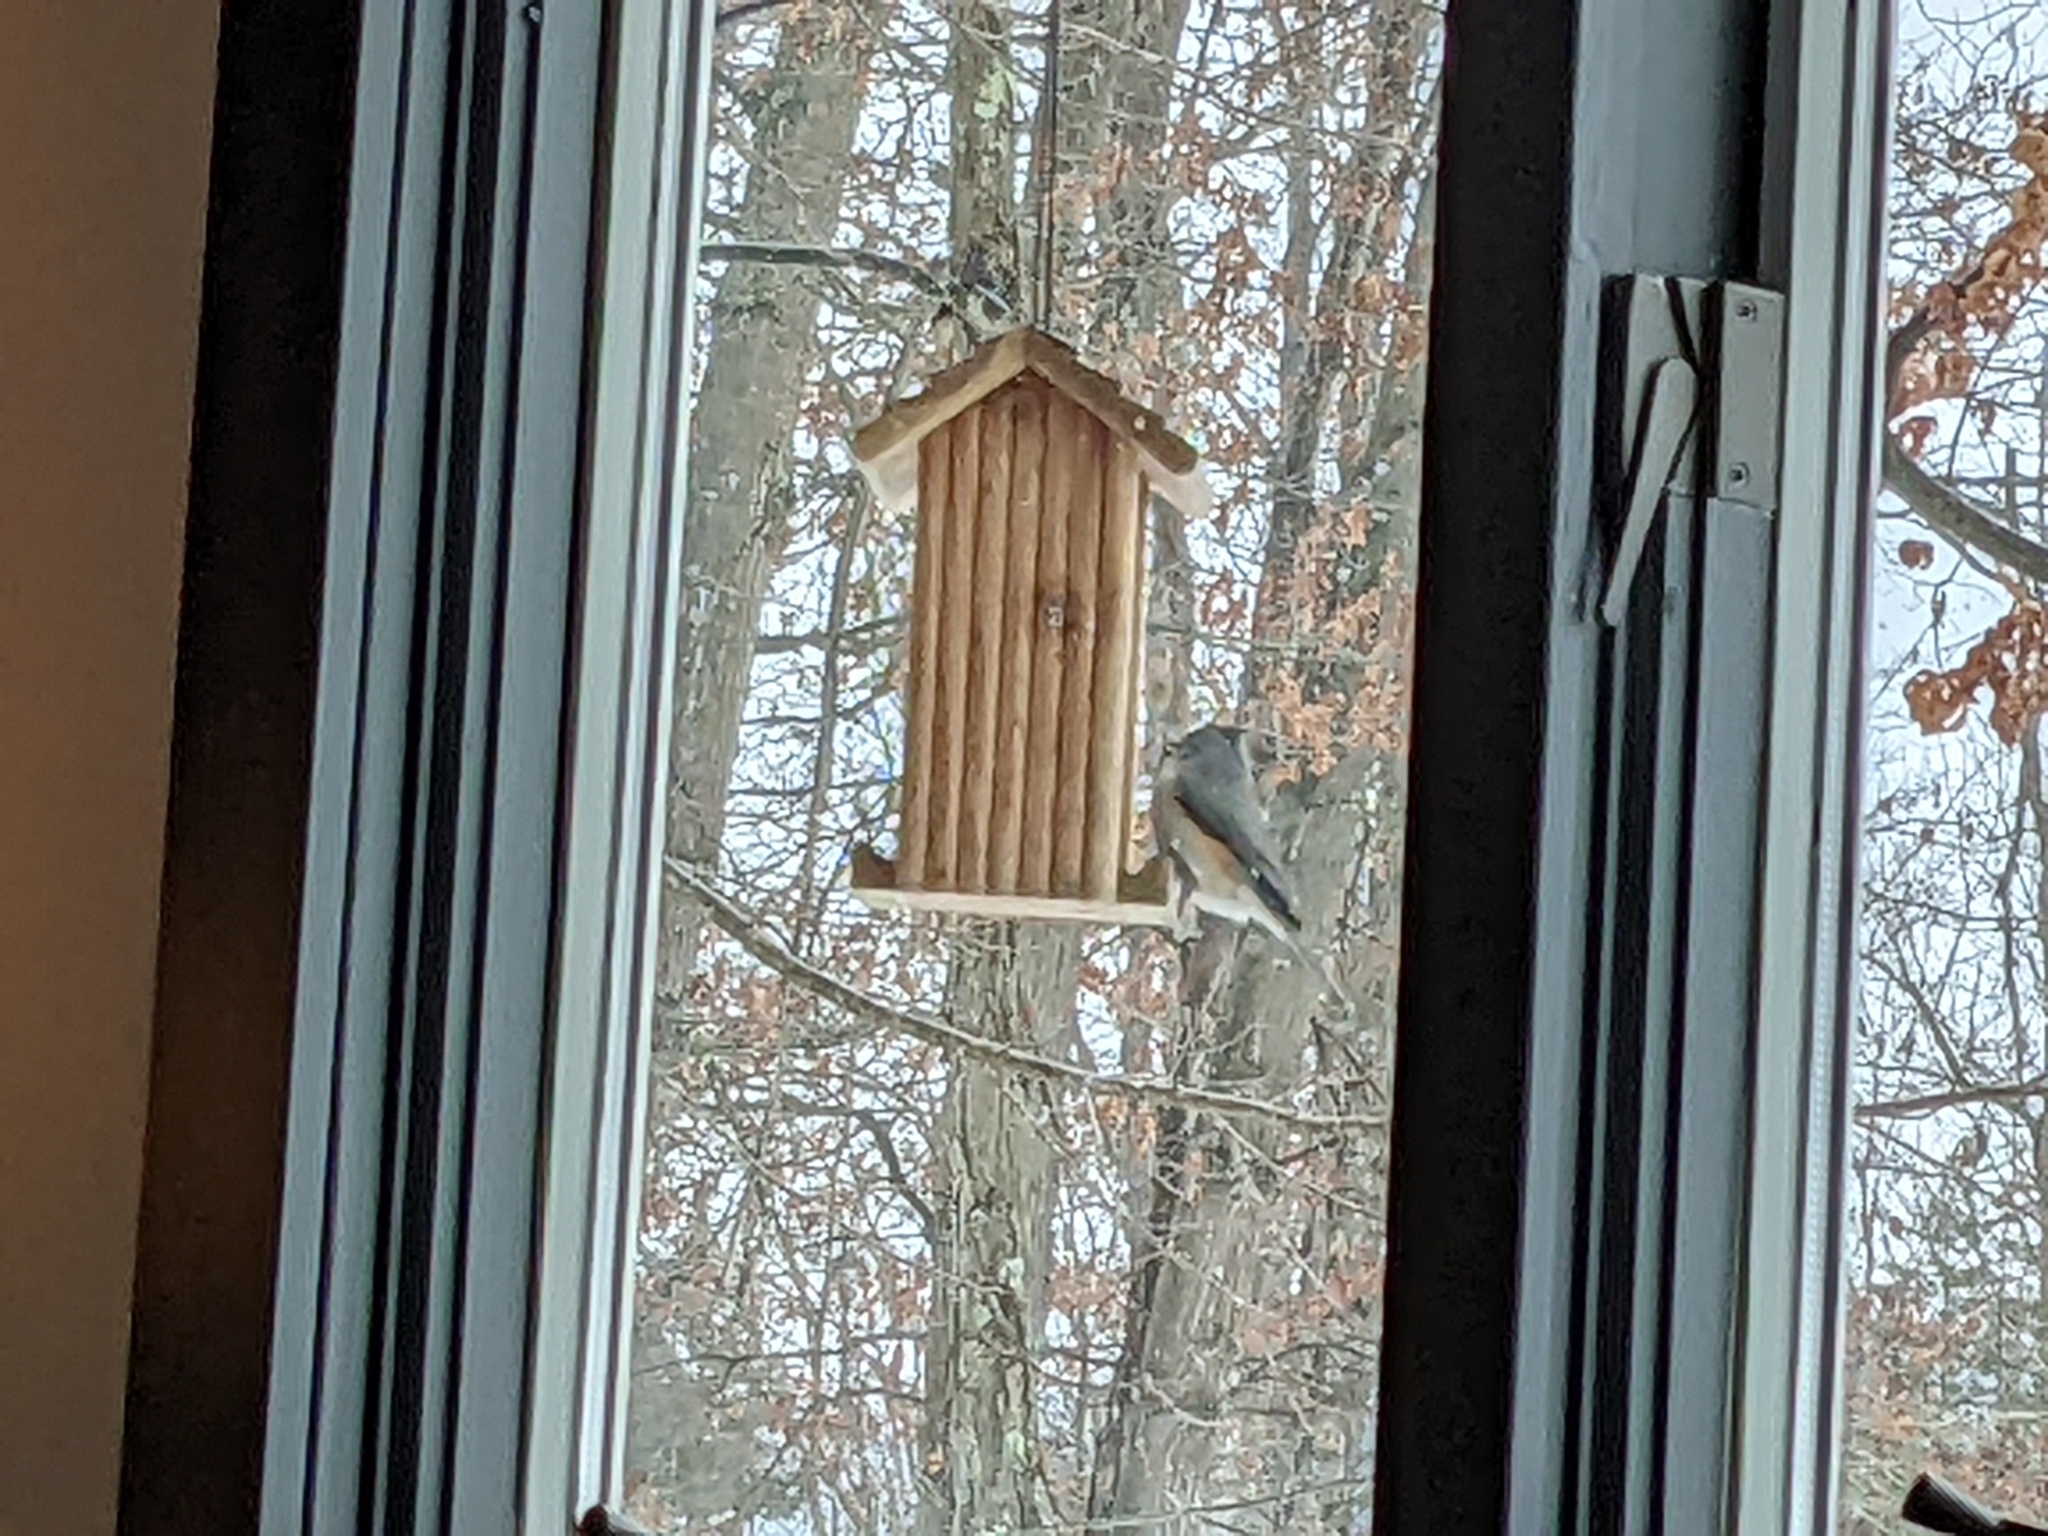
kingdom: Animalia
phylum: Chordata
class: Aves
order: Passeriformes
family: Paridae
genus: Baeolophus
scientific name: Baeolophus bicolor
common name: Tufted titmouse
